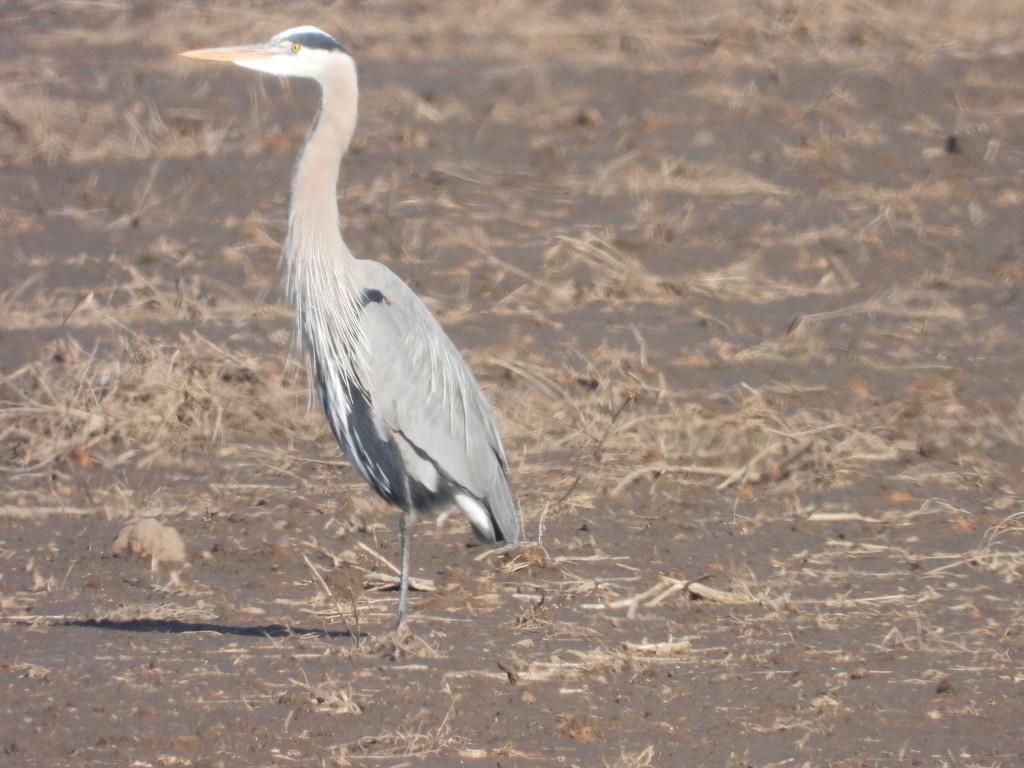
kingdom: Animalia
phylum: Chordata
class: Aves
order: Pelecaniformes
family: Ardeidae
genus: Ardea
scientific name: Ardea herodias
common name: Great blue heron
